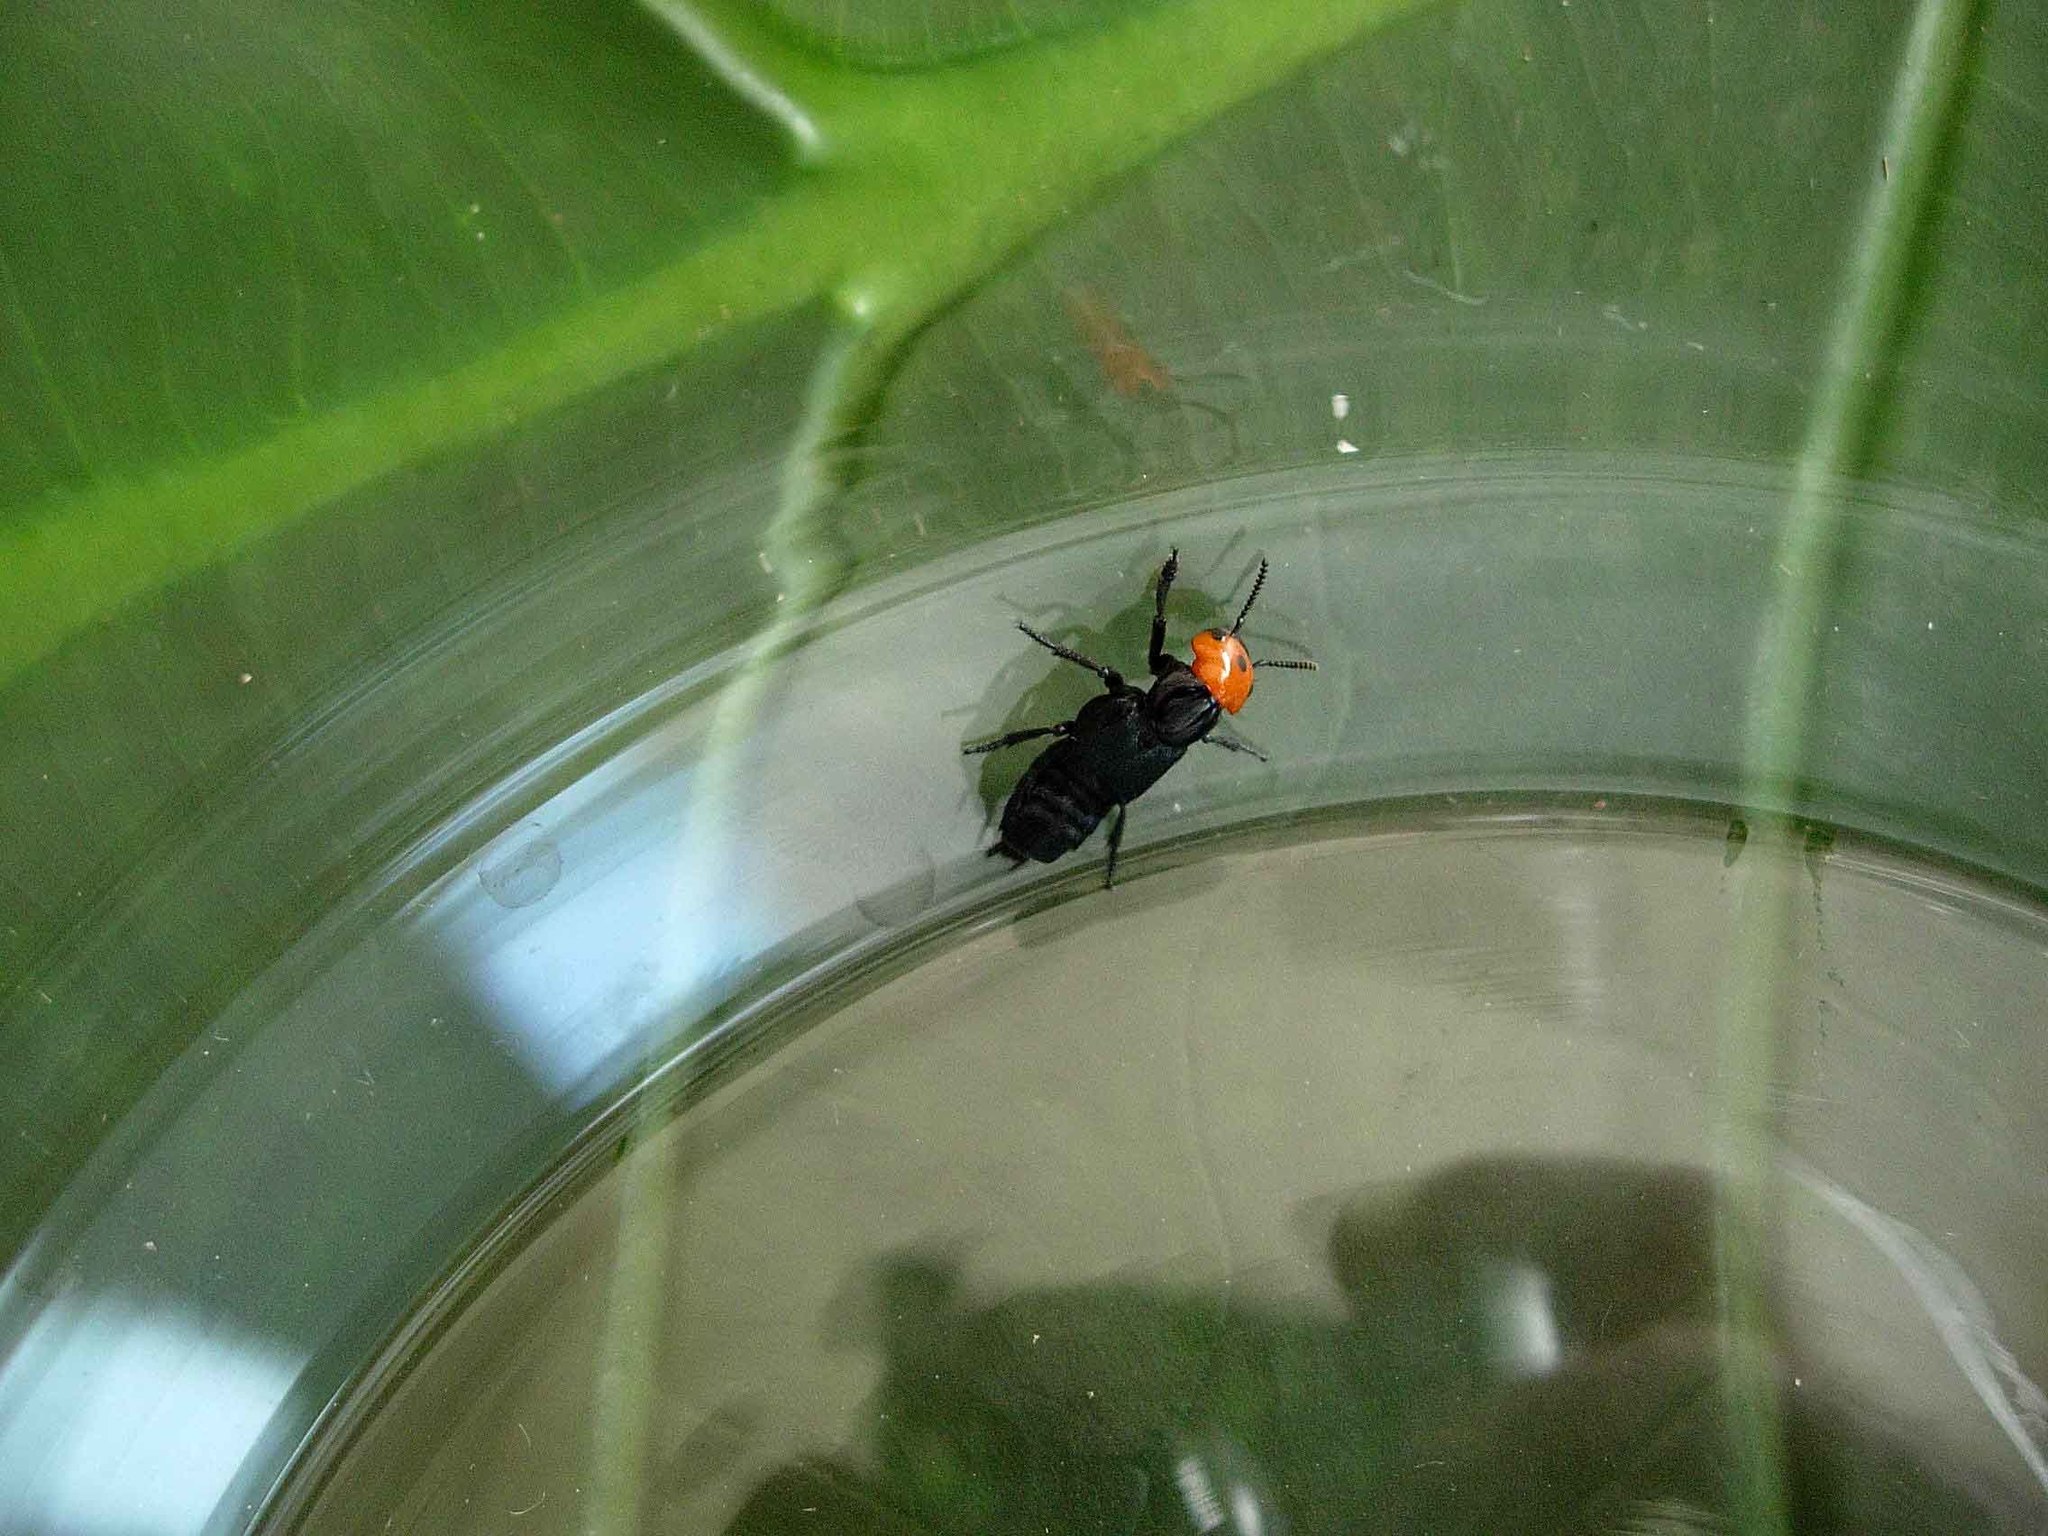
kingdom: Animalia
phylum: Arthropoda
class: Insecta
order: Coleoptera
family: Staphylinidae
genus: Creophilus
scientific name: Creophilus erythrocephalus
